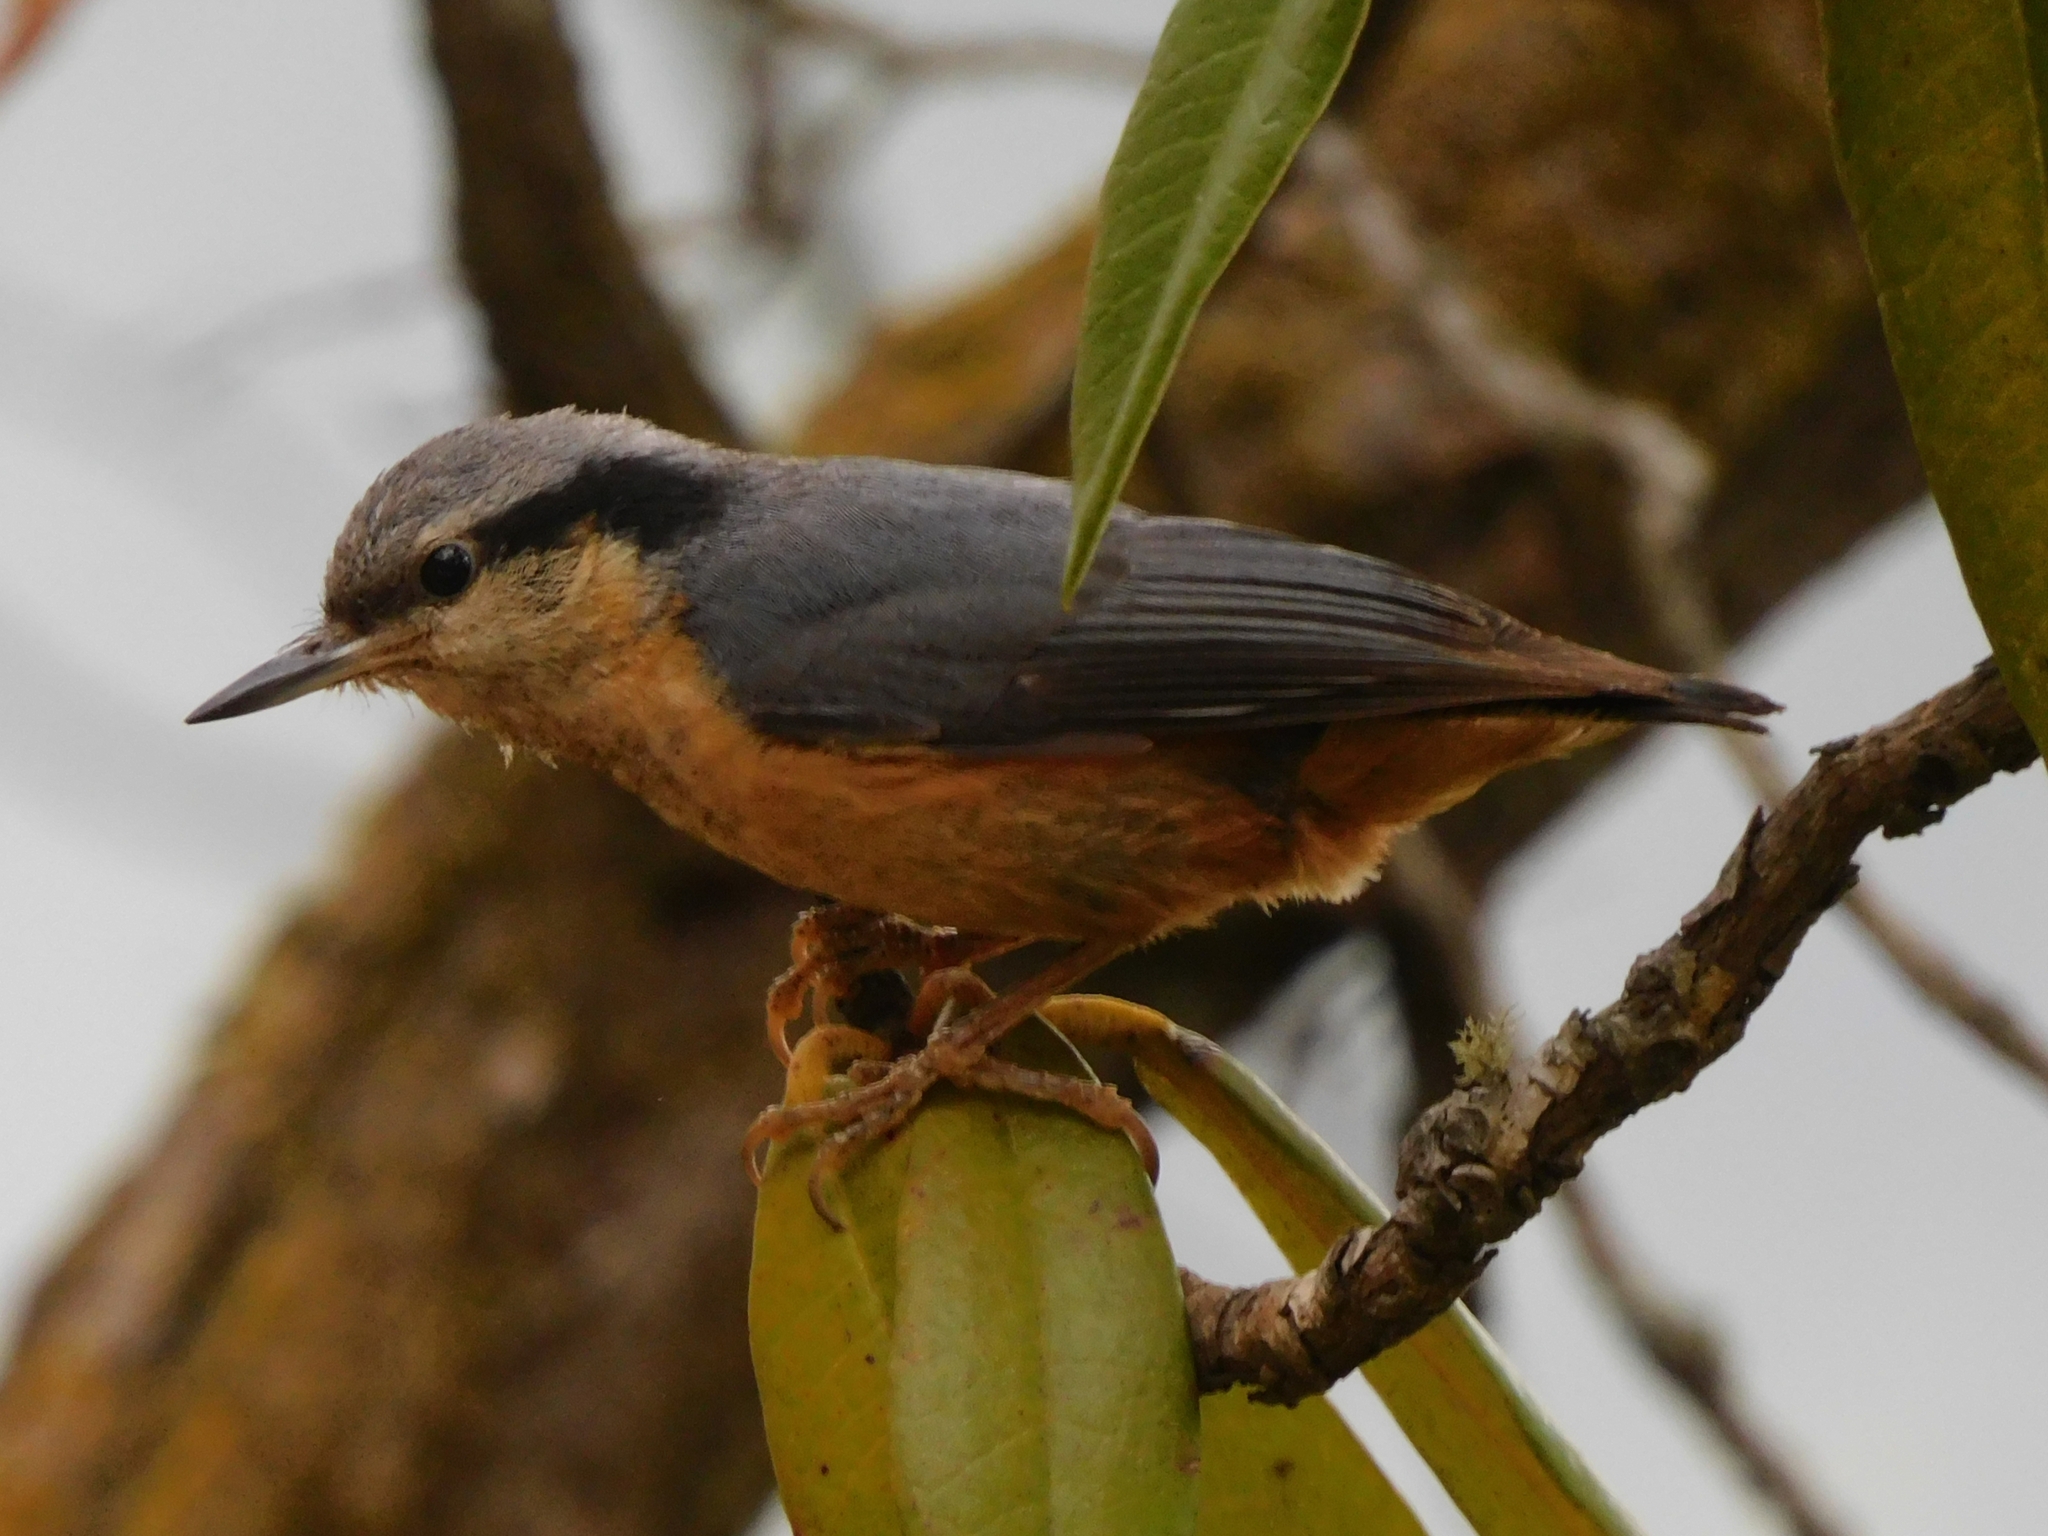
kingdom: Animalia
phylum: Chordata
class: Aves
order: Passeriformes
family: Sittidae
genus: Sitta
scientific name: Sitta himalayensis
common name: White-tailed nuthatch
